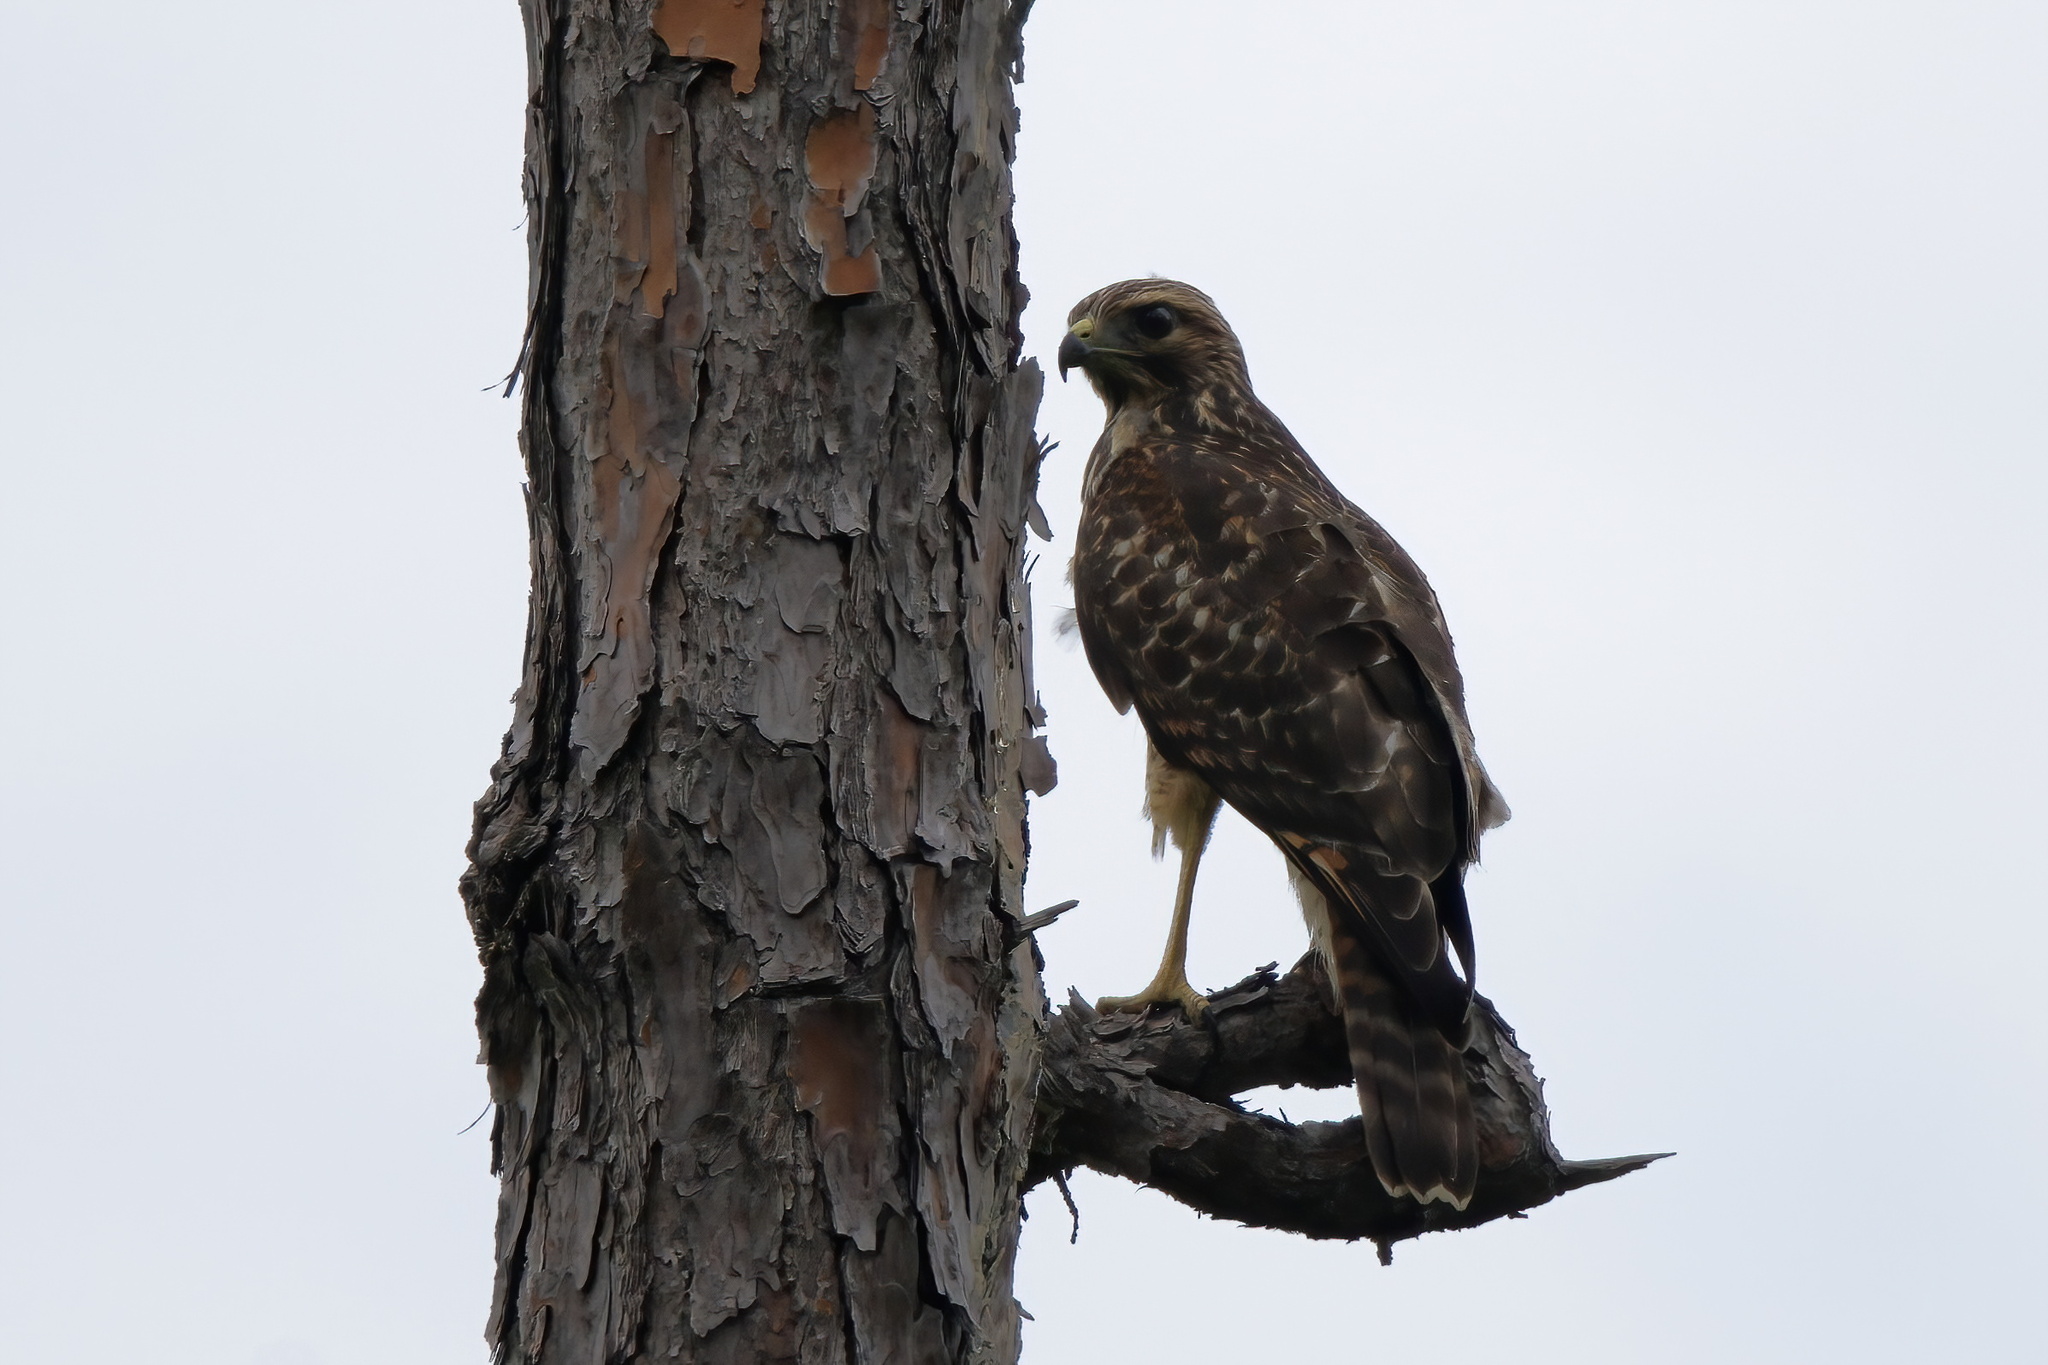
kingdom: Animalia
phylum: Chordata
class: Aves
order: Accipitriformes
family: Accipitridae
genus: Buteo
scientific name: Buteo lineatus
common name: Red-shouldered hawk
